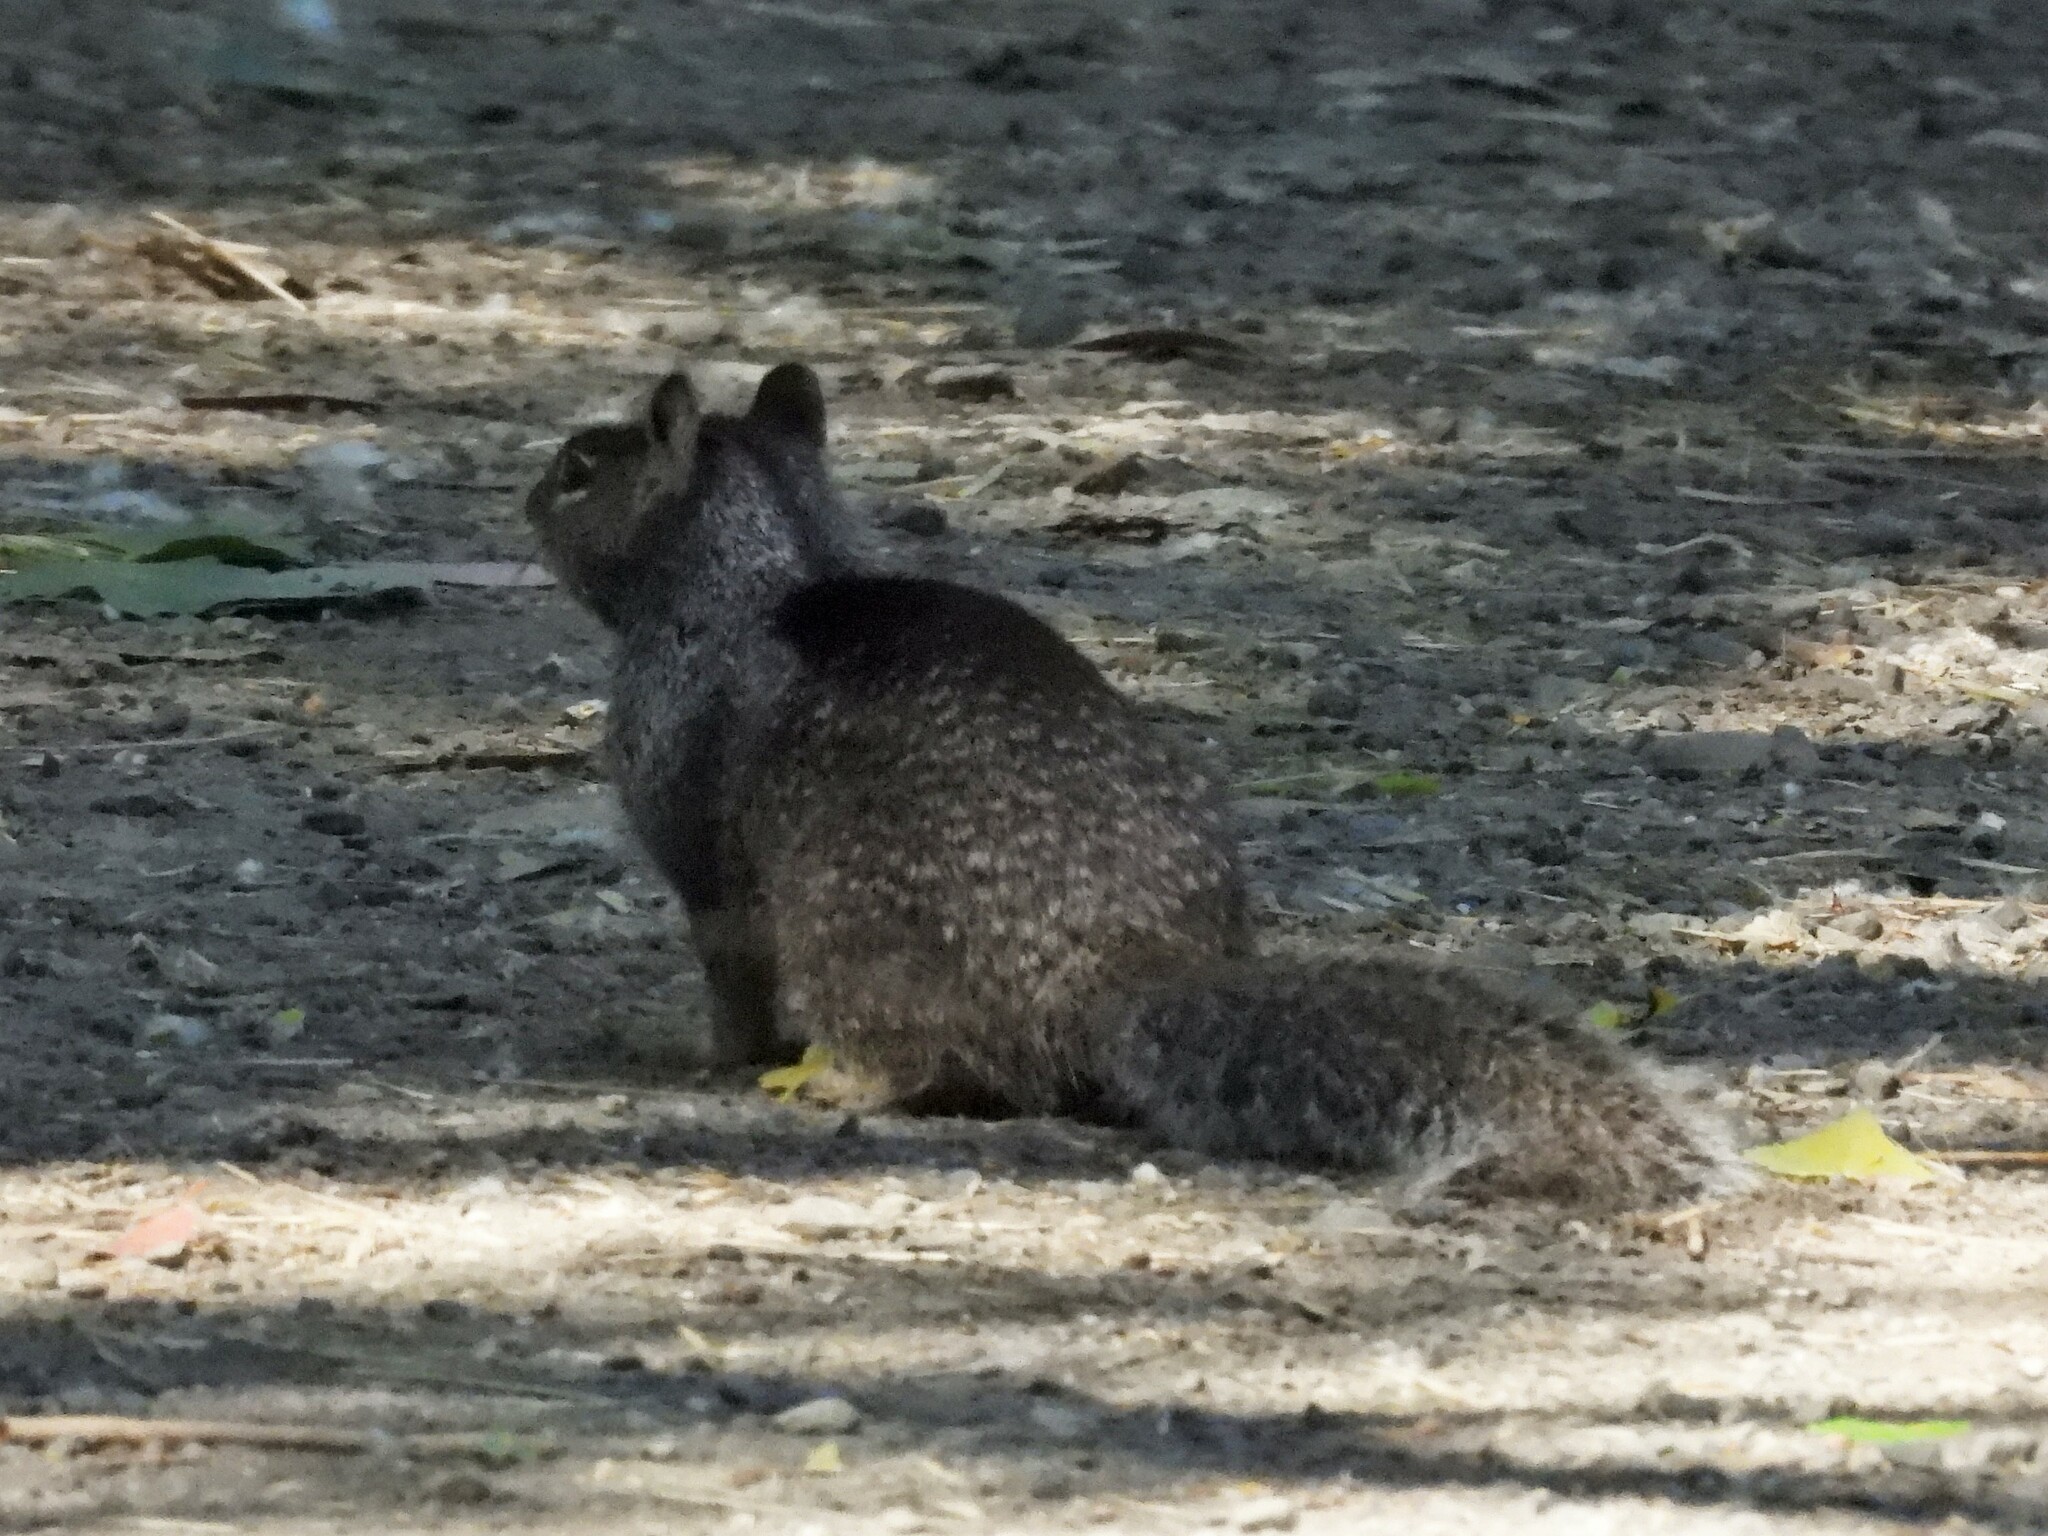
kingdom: Animalia
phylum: Chordata
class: Mammalia
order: Rodentia
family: Sciuridae
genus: Otospermophilus
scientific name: Otospermophilus beecheyi
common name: California ground squirrel
